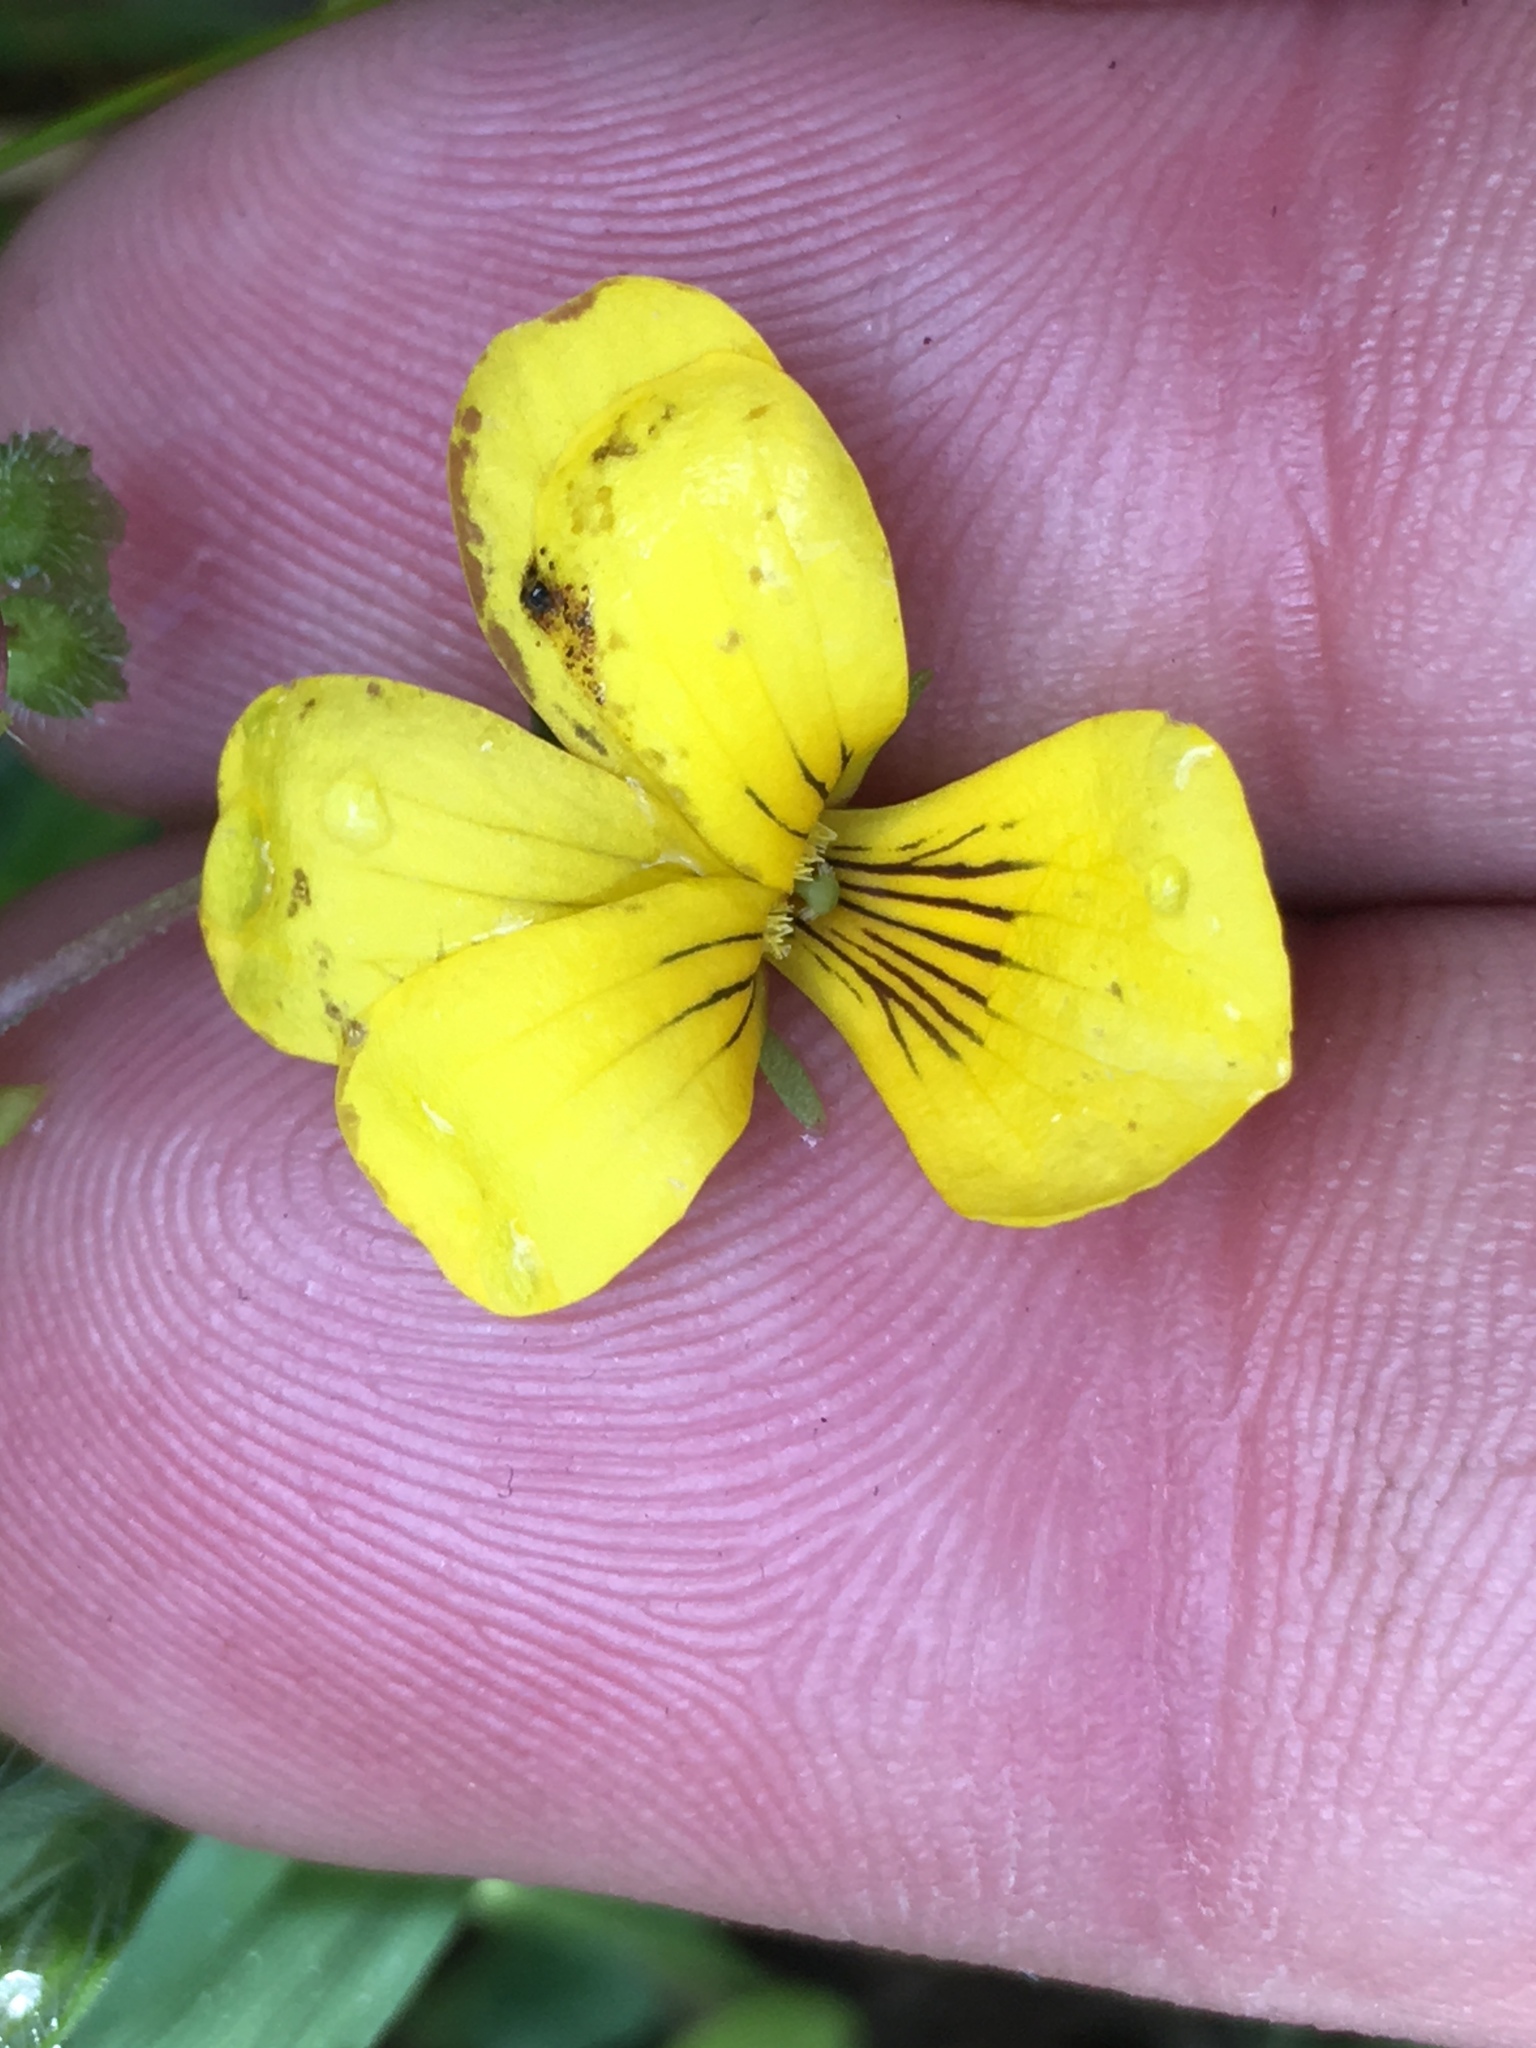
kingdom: Plantae
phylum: Tracheophyta
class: Magnoliopsida
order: Malpighiales
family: Violaceae
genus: Viola
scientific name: Viola
